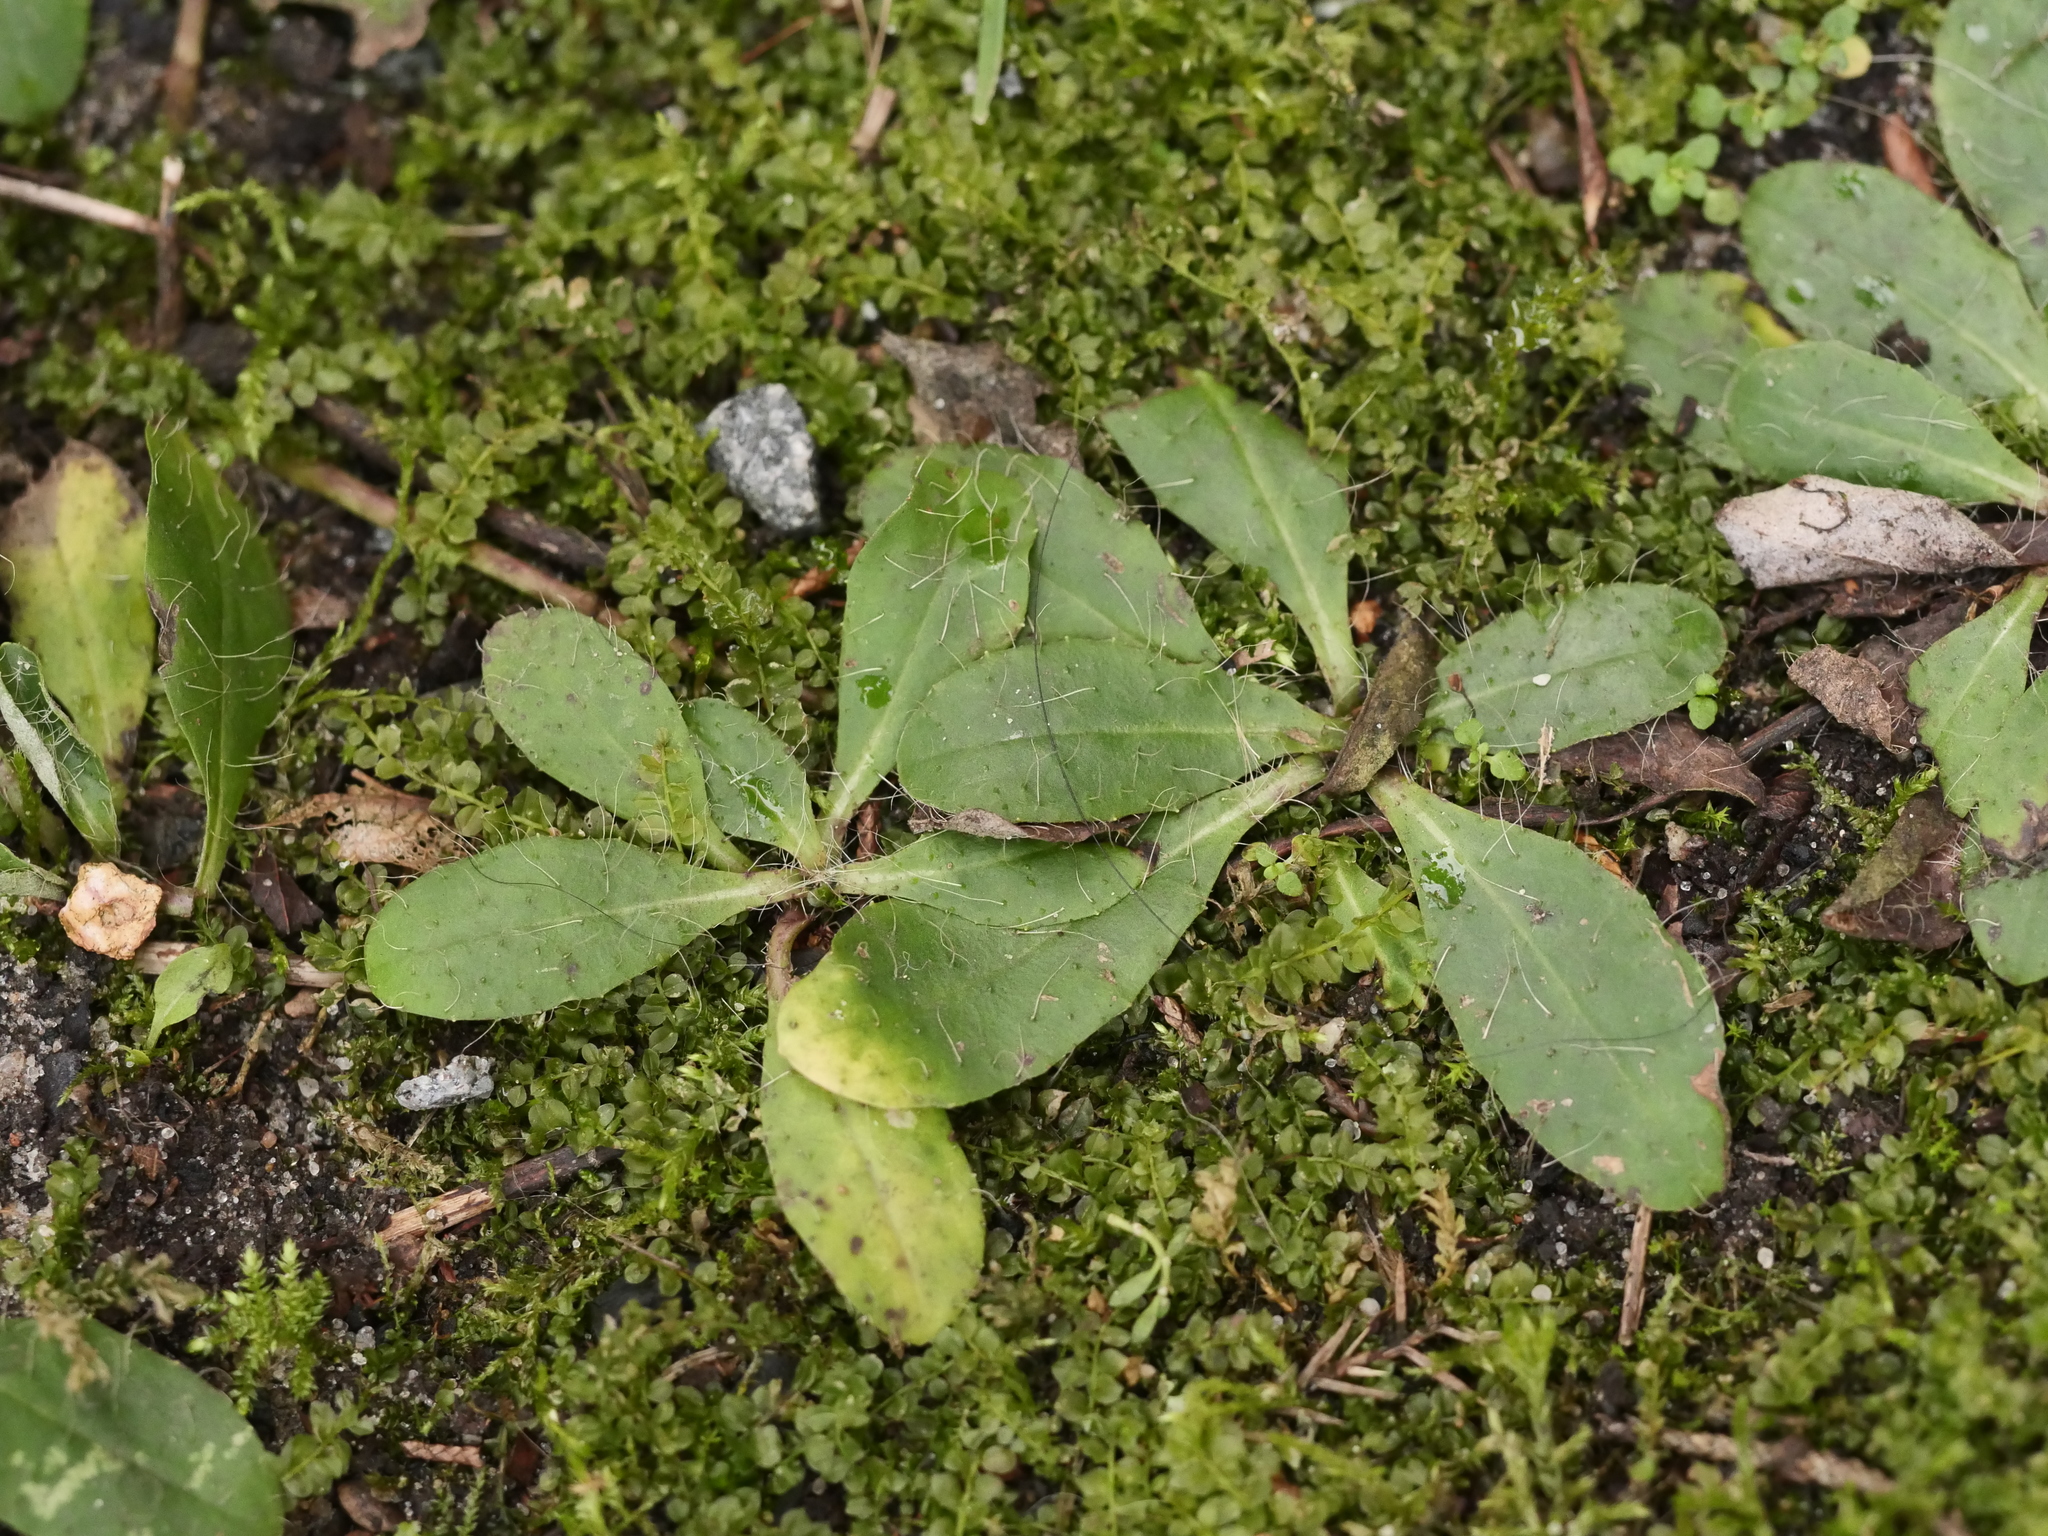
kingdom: Plantae
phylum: Tracheophyta
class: Magnoliopsida
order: Asterales
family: Asteraceae
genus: Pilosella
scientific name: Pilosella officinarum
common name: Mouse-ear hawkweed
